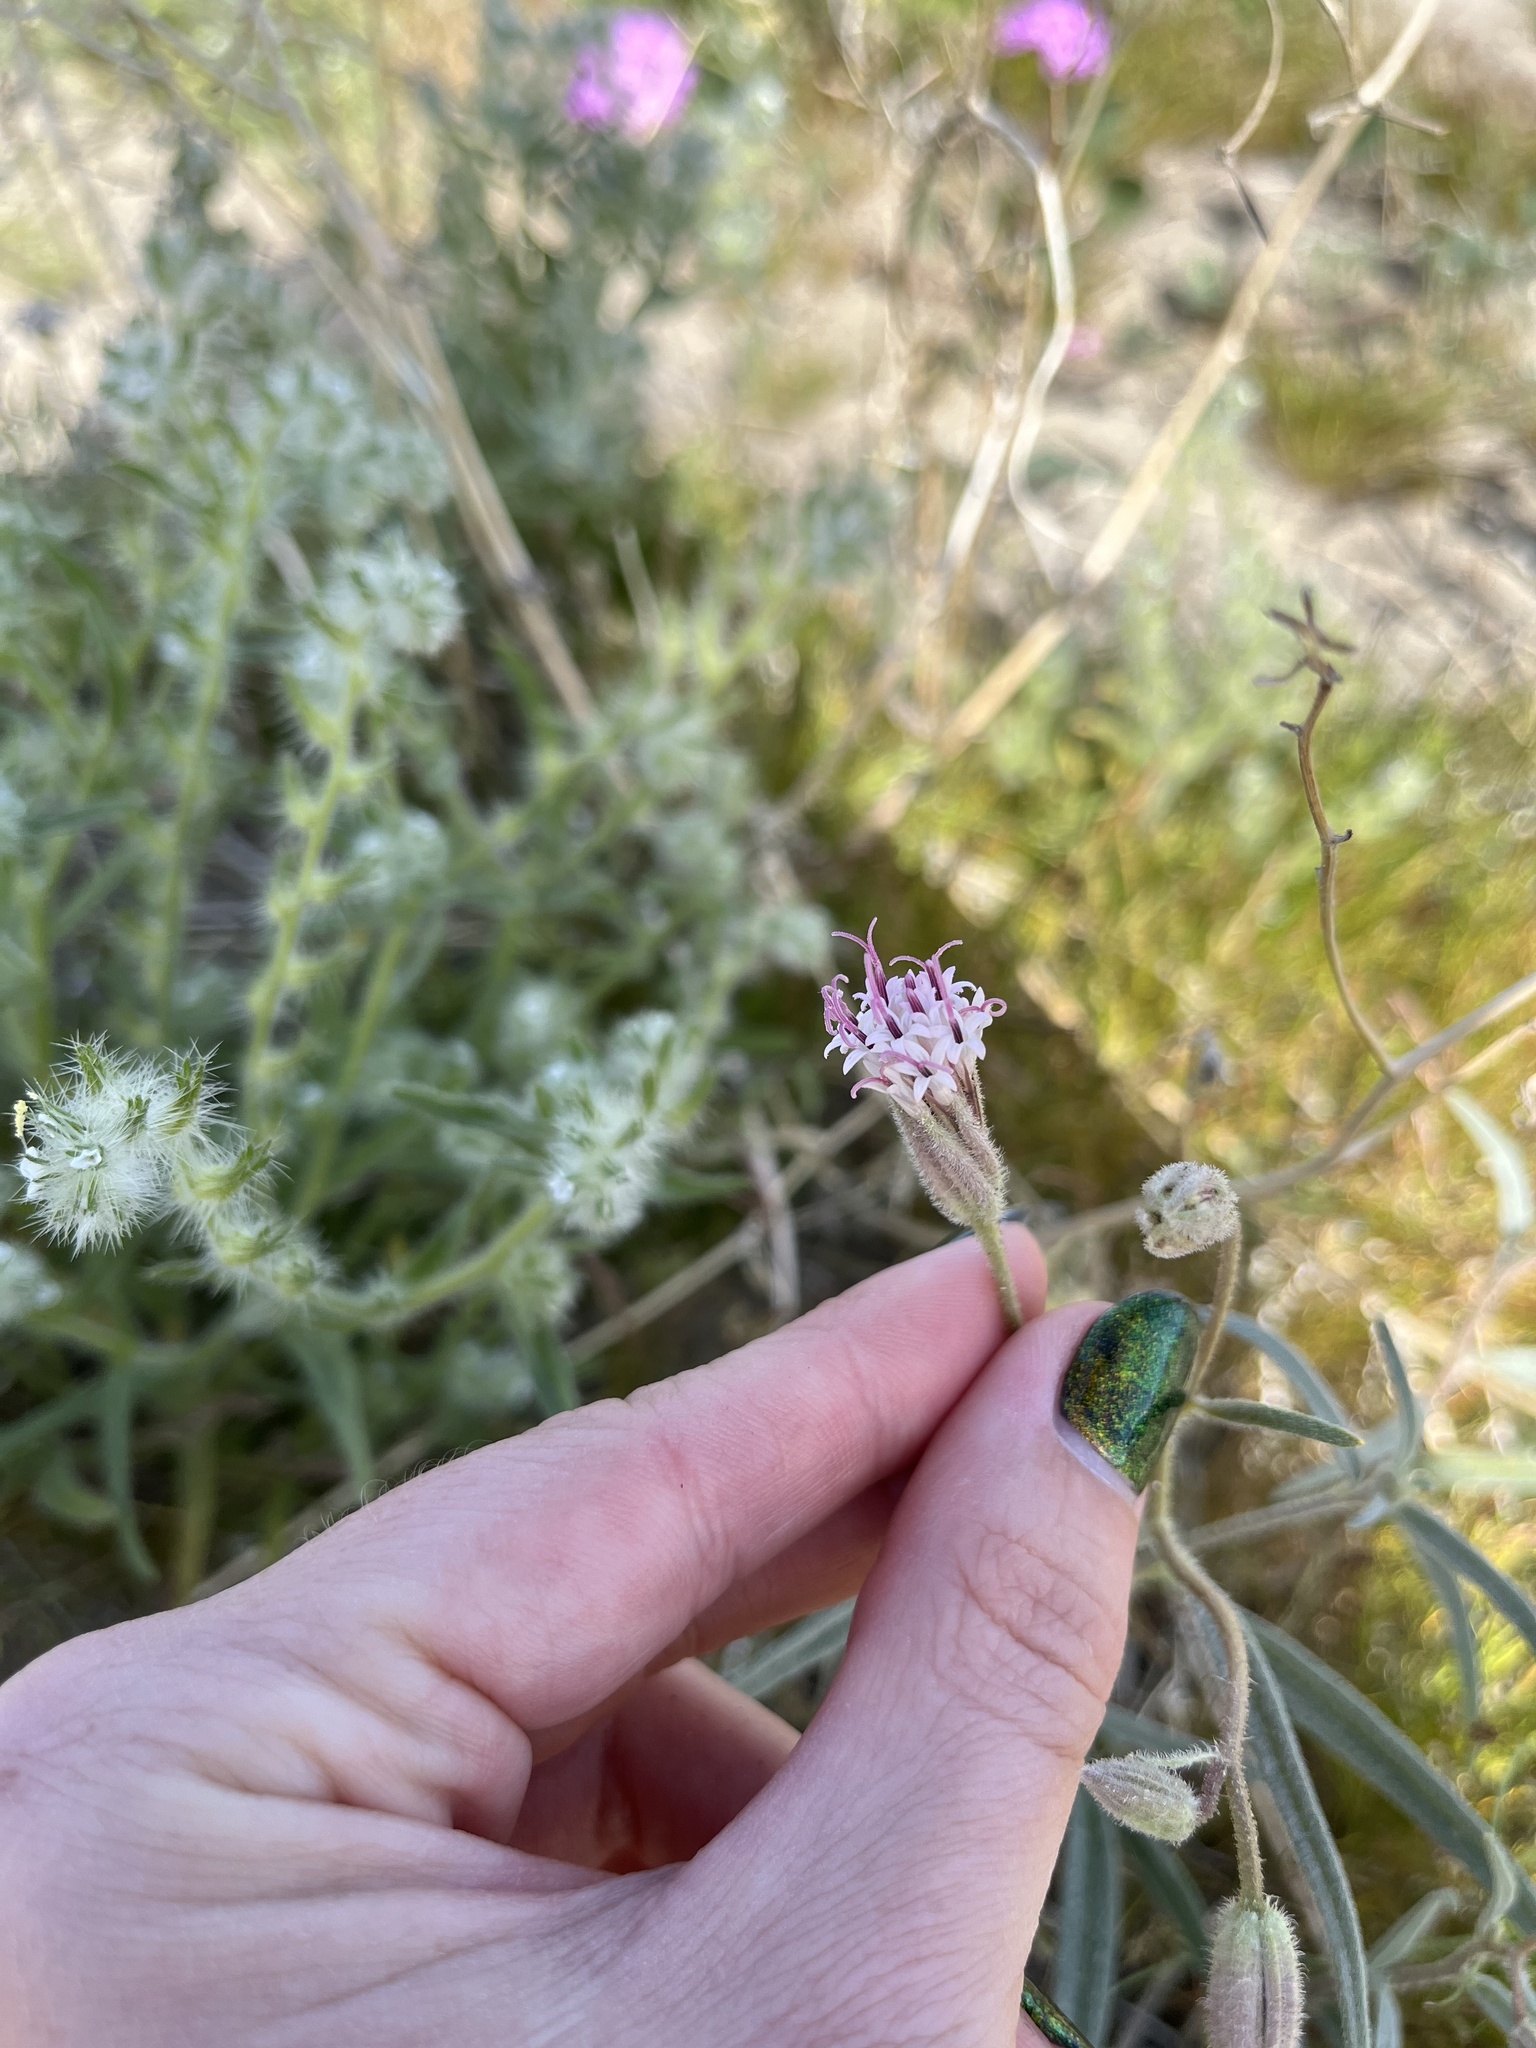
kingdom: Plantae
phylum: Tracheophyta
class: Magnoliopsida
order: Asterales
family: Asteraceae
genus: Palafoxia
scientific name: Palafoxia arida
